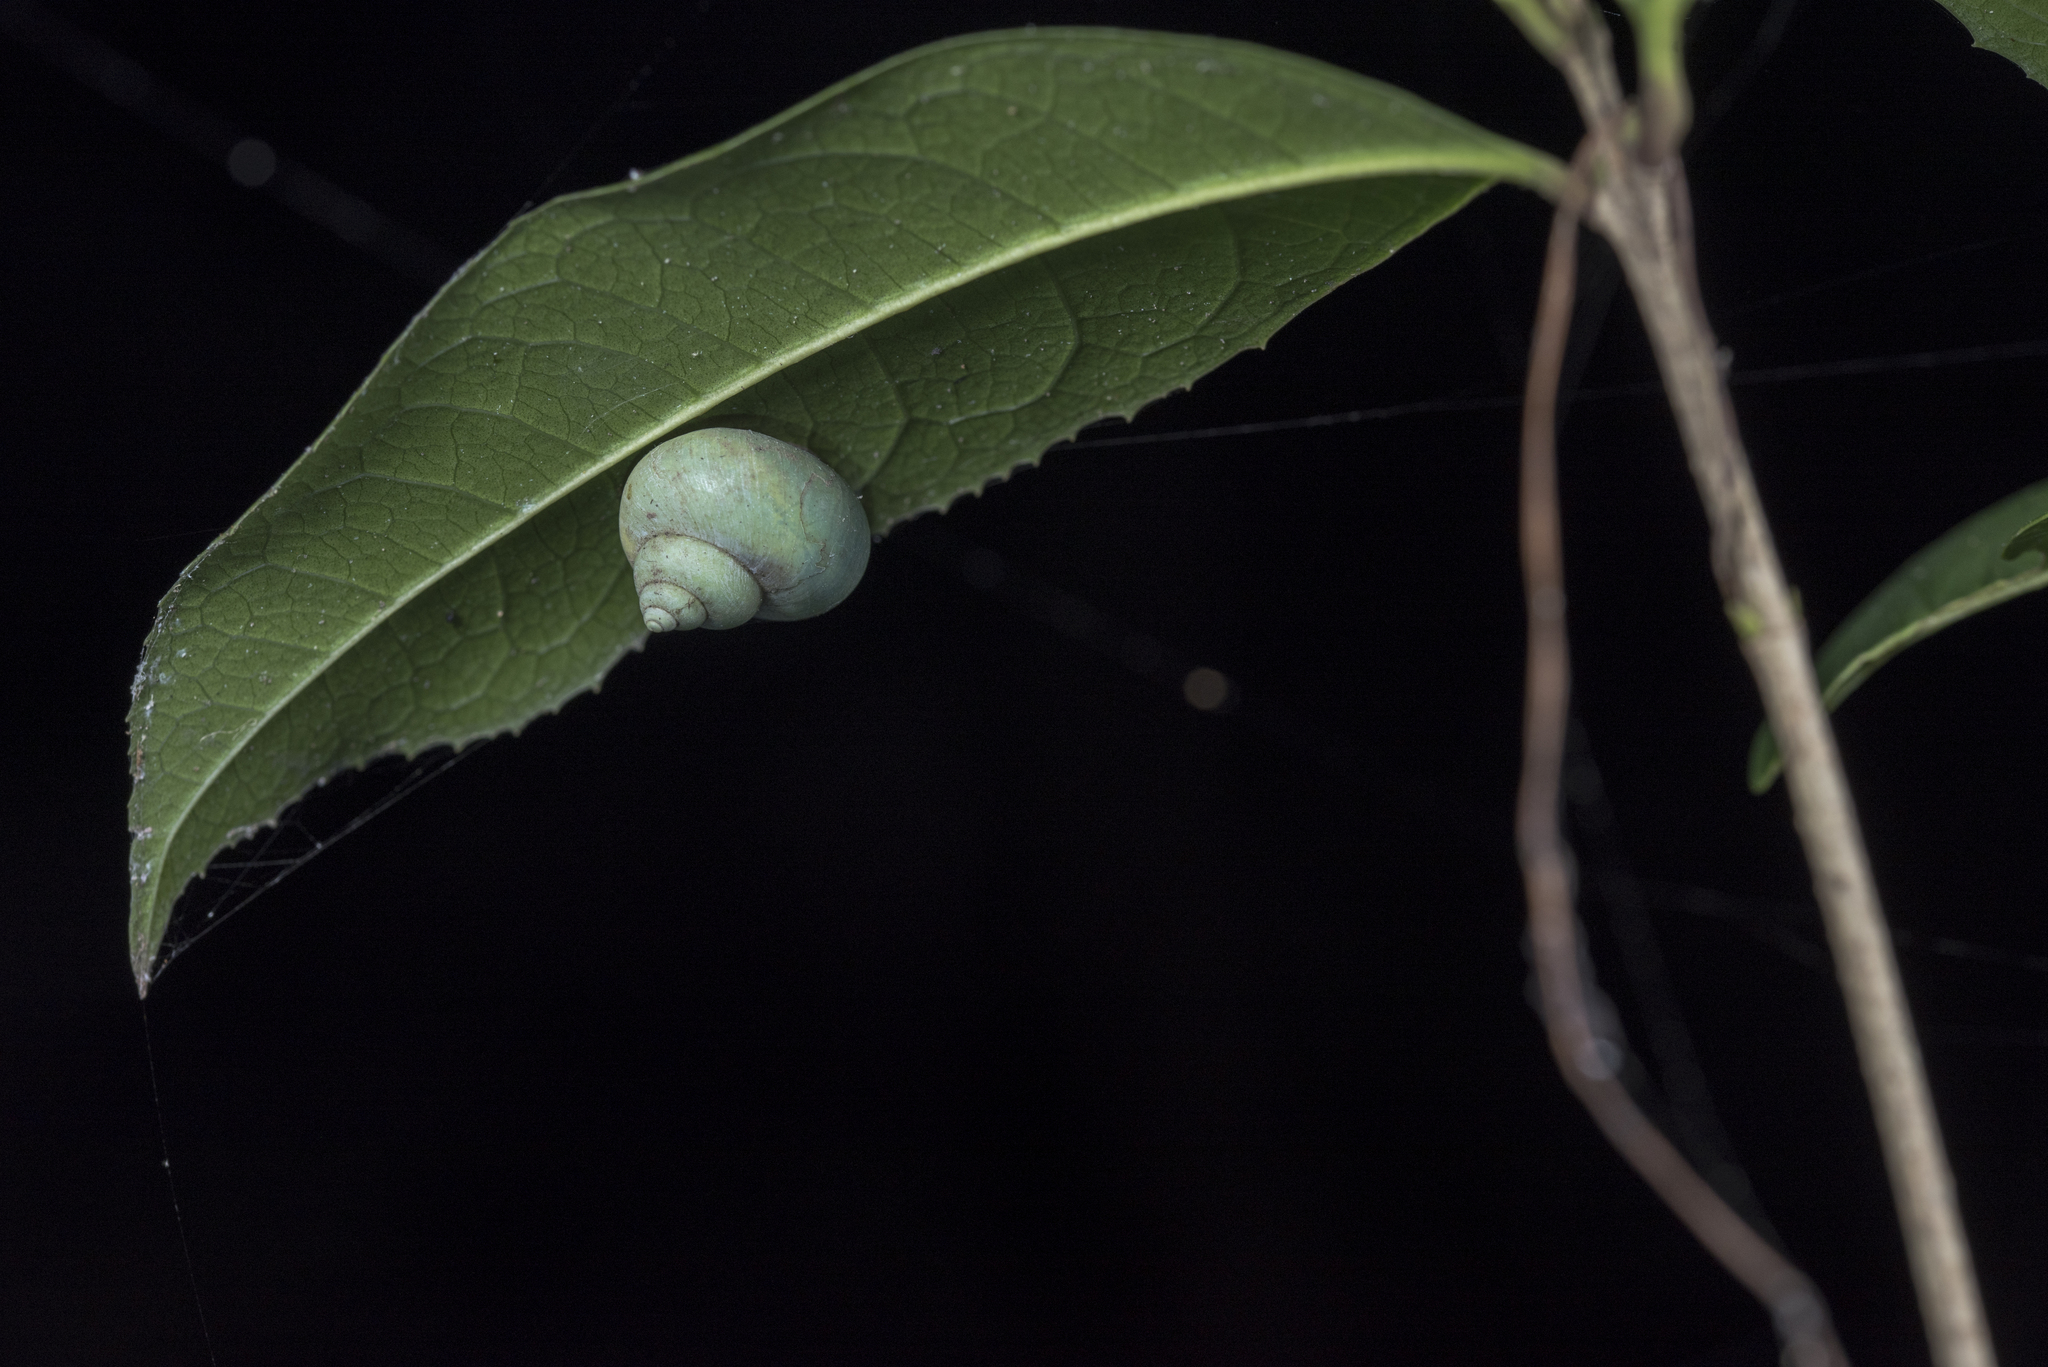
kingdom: Animalia
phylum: Mollusca
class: Gastropoda
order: Architaenioglossa
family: Cyclophoridae
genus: Leptopoma
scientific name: Leptopoma nitidum
